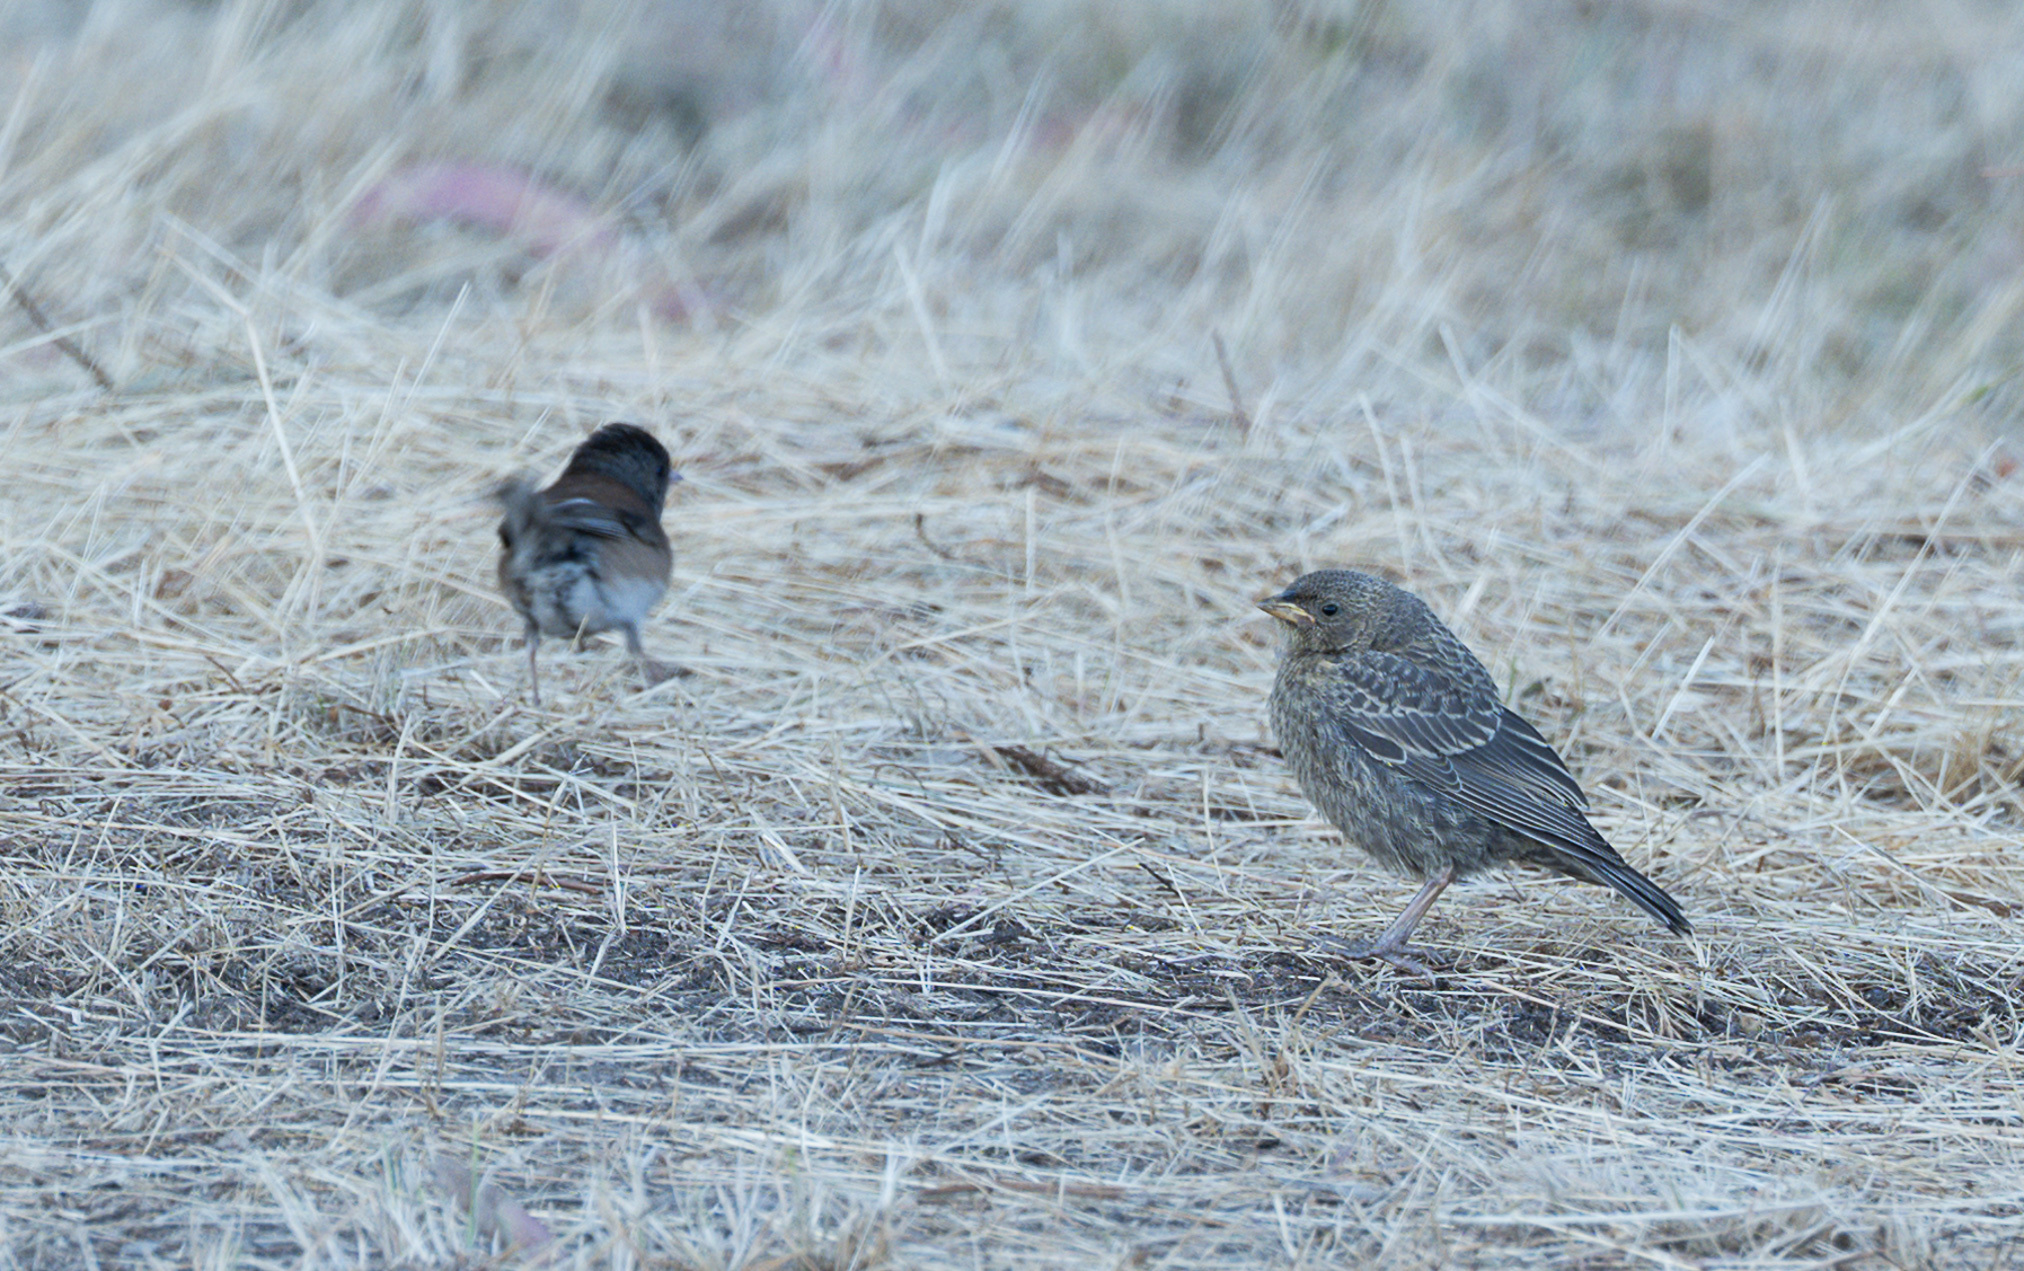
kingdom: Animalia
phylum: Chordata
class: Aves
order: Passeriformes
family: Icteridae
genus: Molothrus
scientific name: Molothrus ater
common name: Brown-headed cowbird
